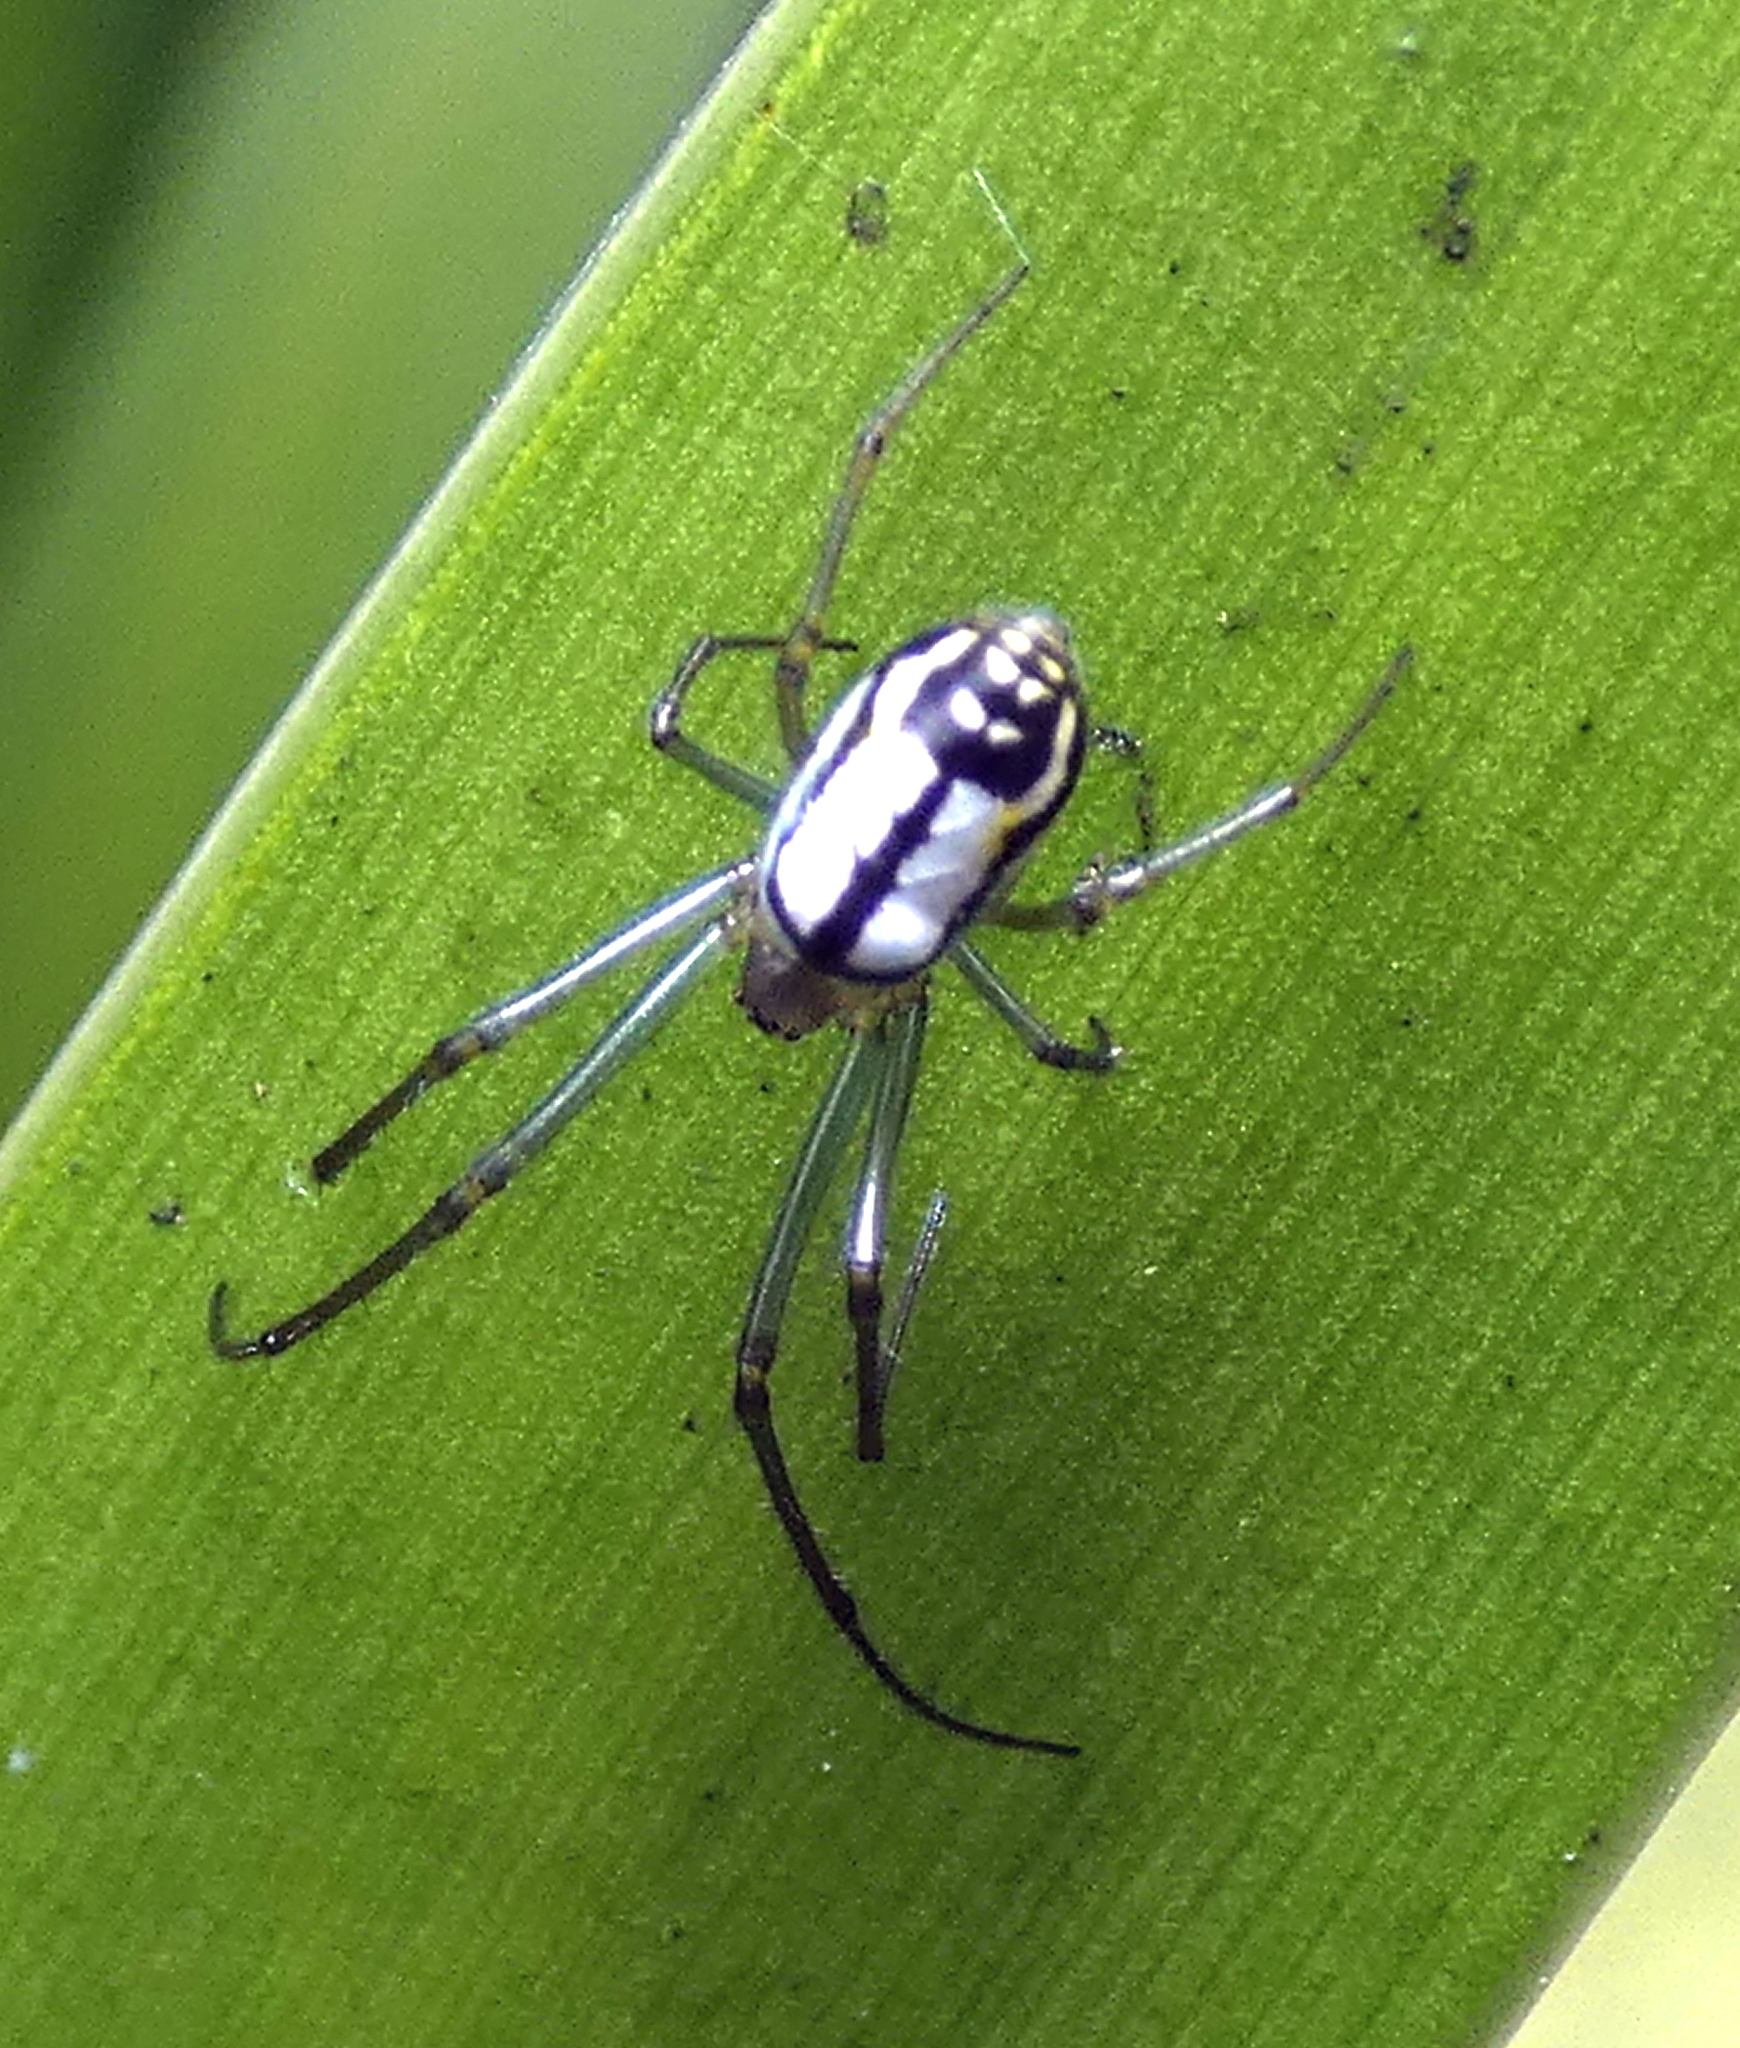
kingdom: Animalia
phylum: Arthropoda
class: Arachnida
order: Araneae
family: Tetragnathidae
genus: Leucauge
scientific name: Leucauge volupis
